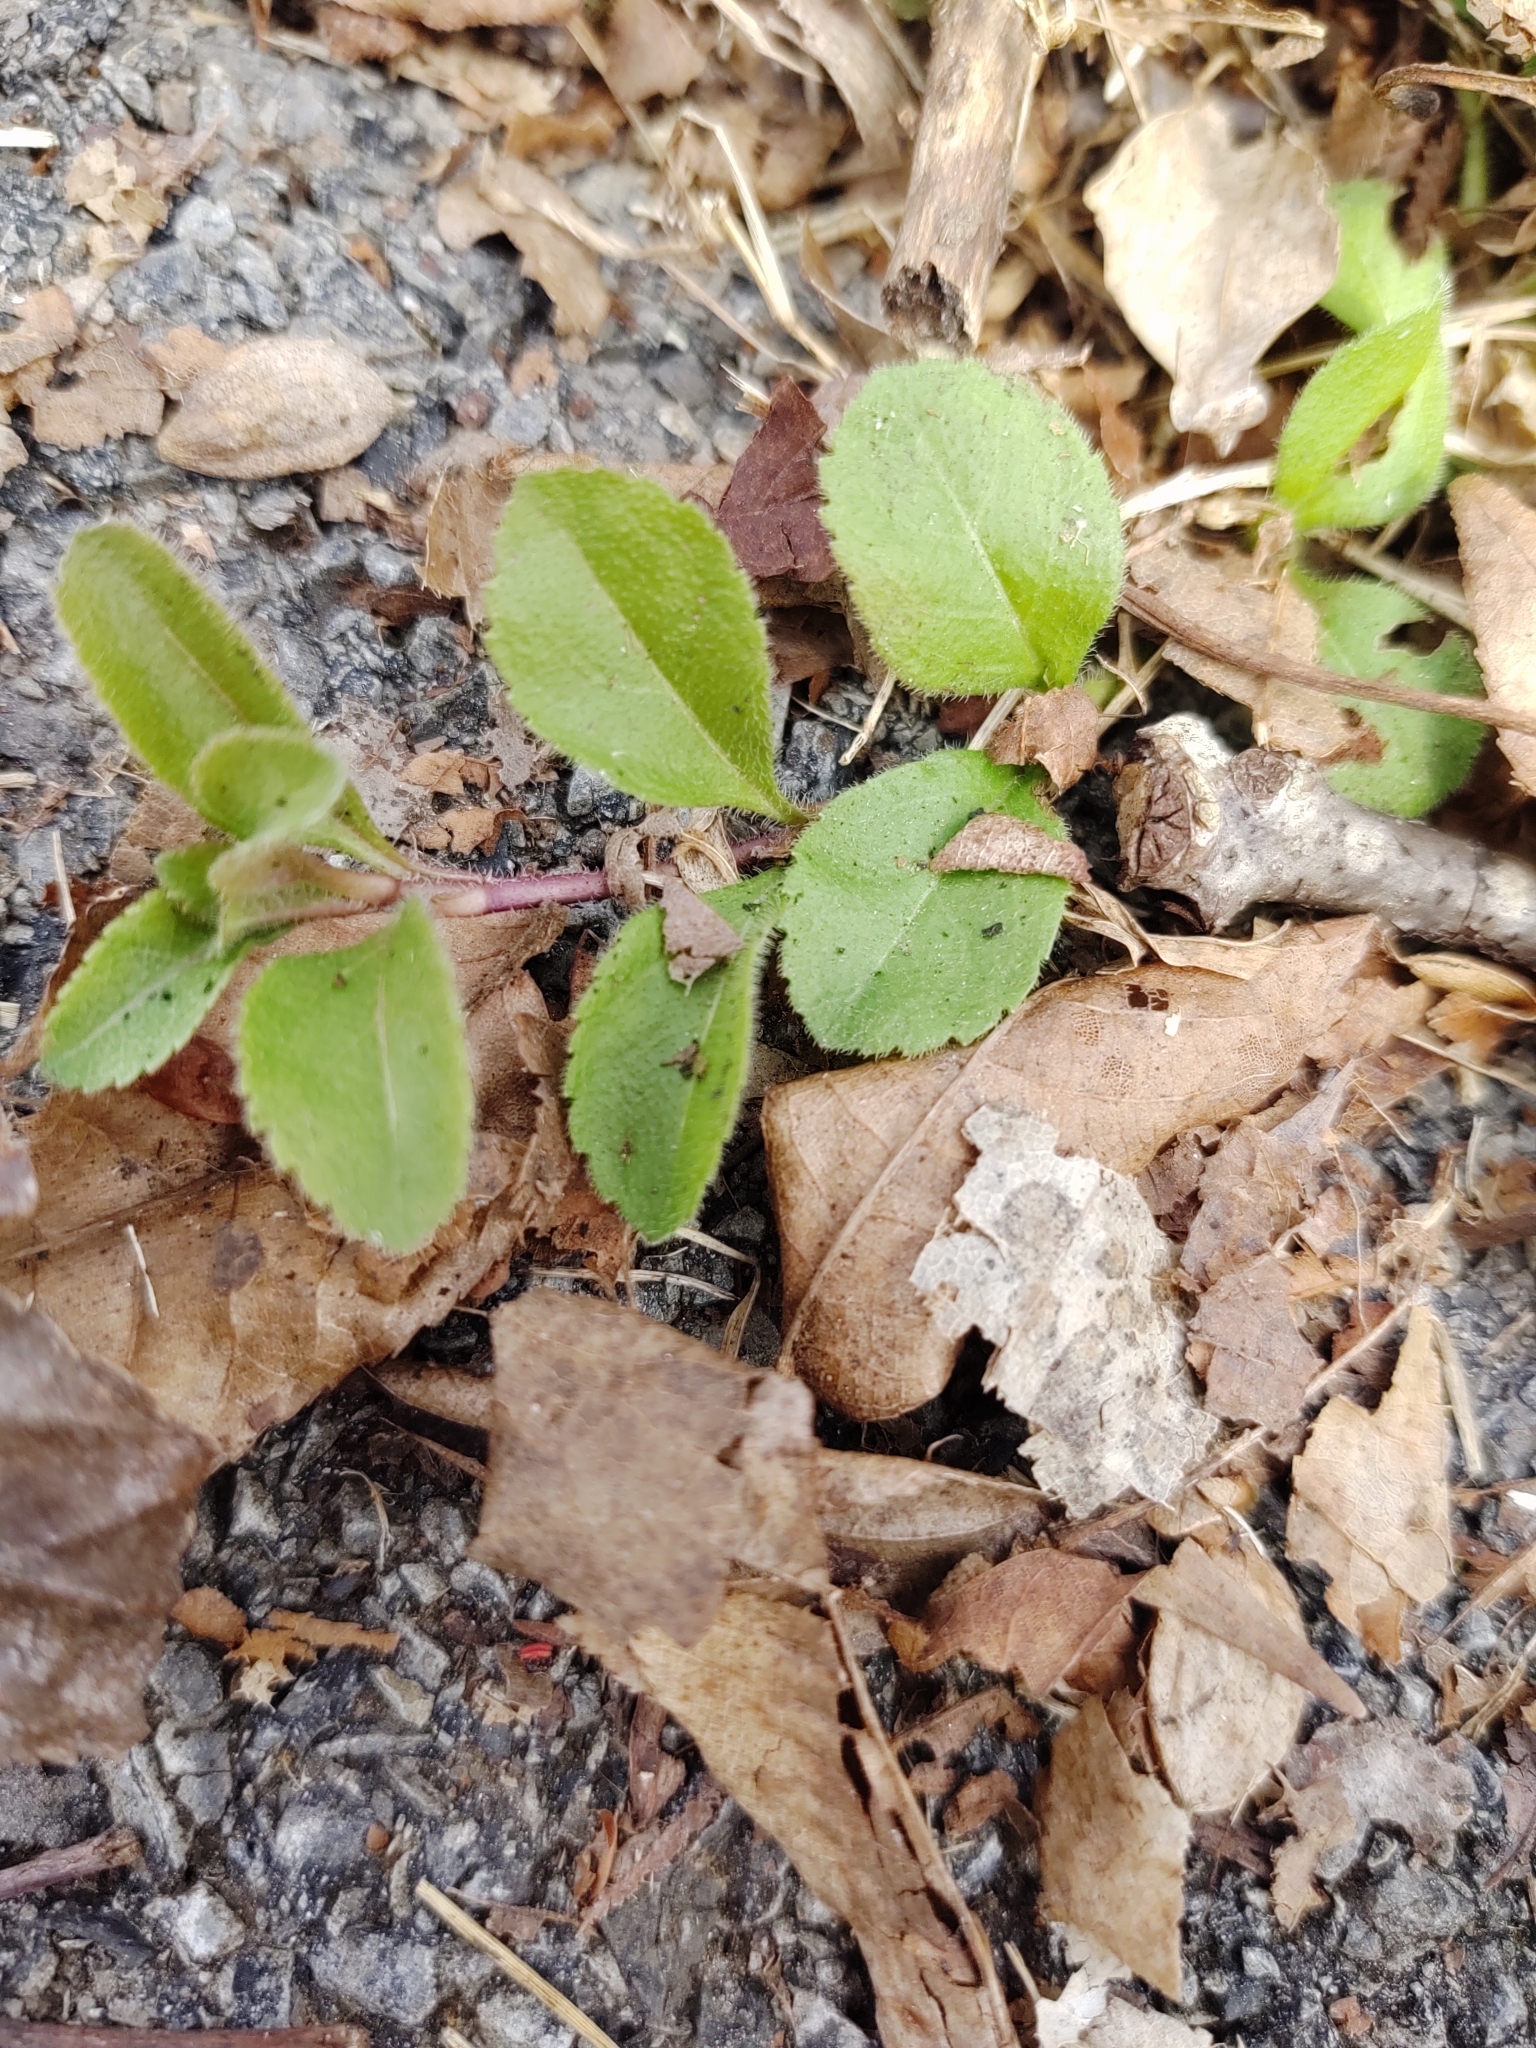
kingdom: Plantae
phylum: Tracheophyta
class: Magnoliopsida
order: Lamiales
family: Plantaginaceae
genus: Veronica
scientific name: Veronica officinalis
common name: Common speedwell
